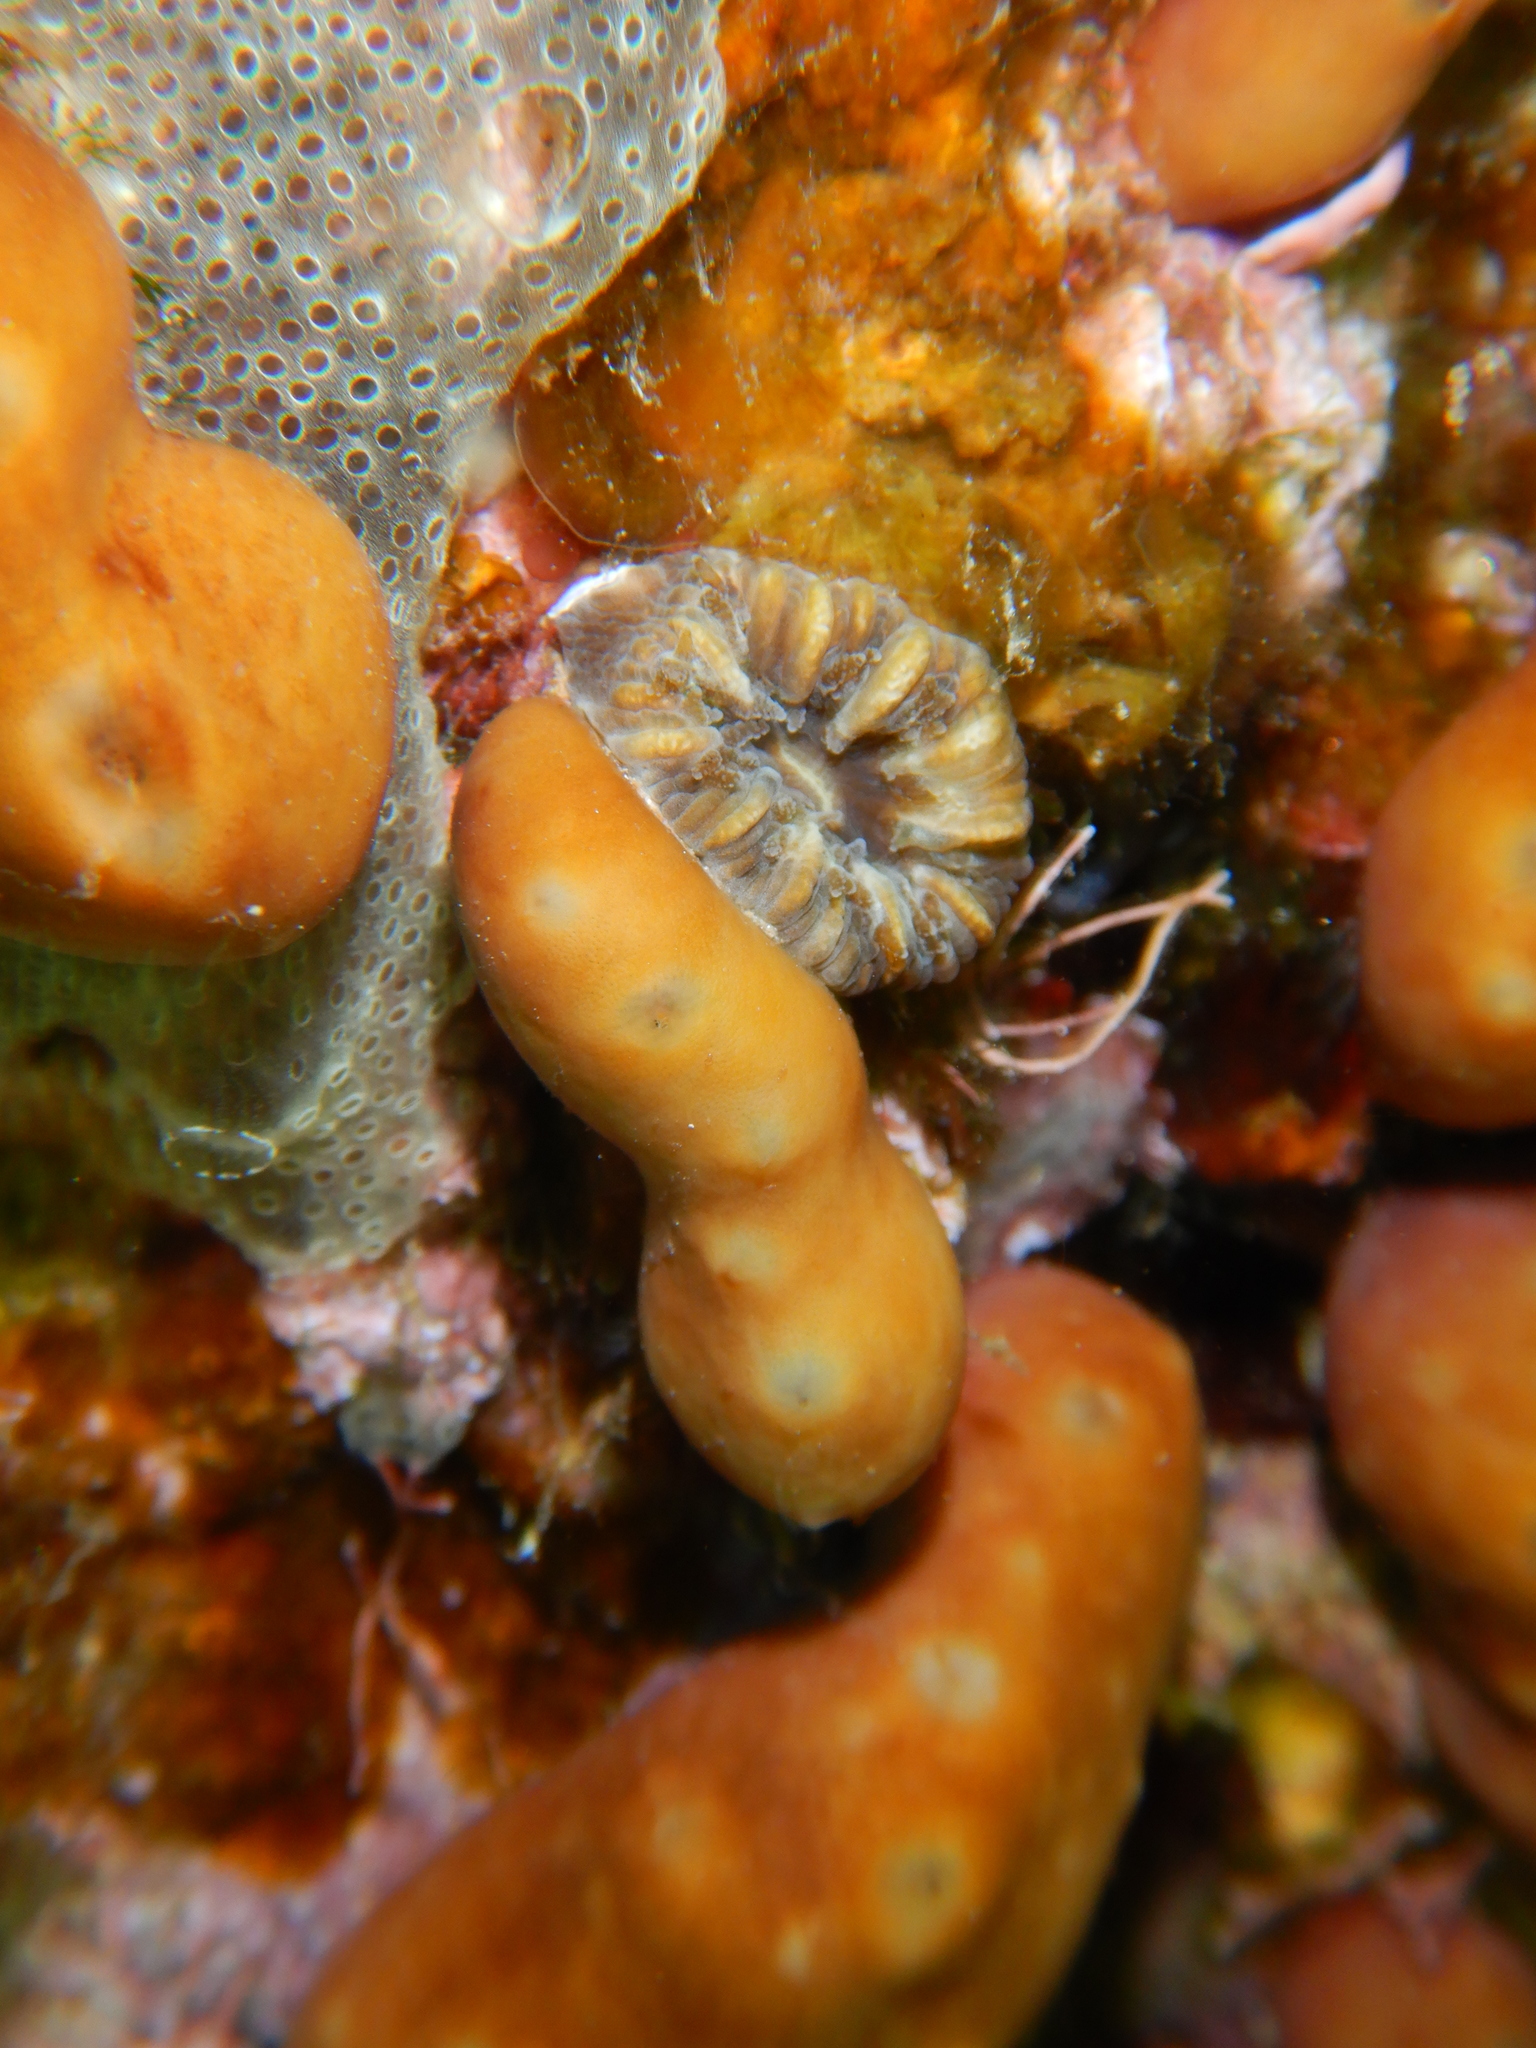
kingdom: Animalia
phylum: Cnidaria
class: Anthozoa
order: Scleractinia
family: Dendrophylliidae
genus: Balanophyllia
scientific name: Balanophyllia europaea
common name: Scarlet coral
